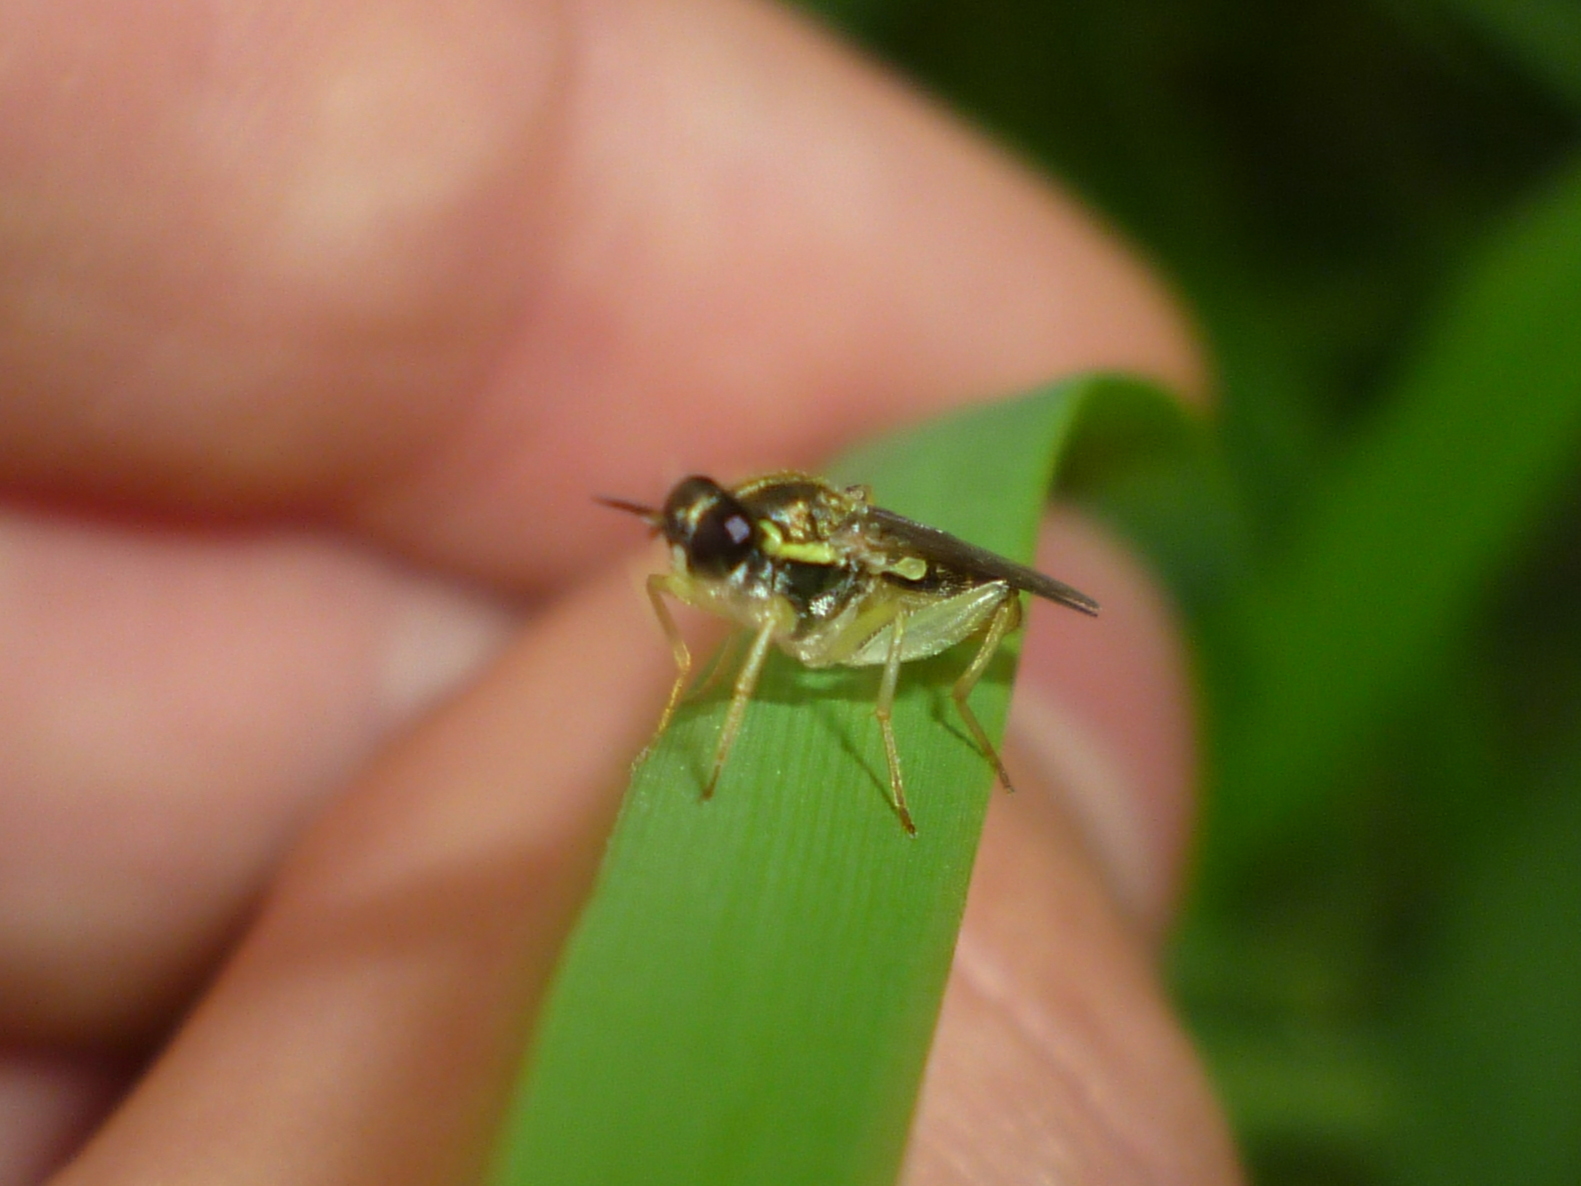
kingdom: Animalia
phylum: Arthropoda
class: Insecta
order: Diptera
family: Xylomyidae
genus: Solva
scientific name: Solva pallipes
